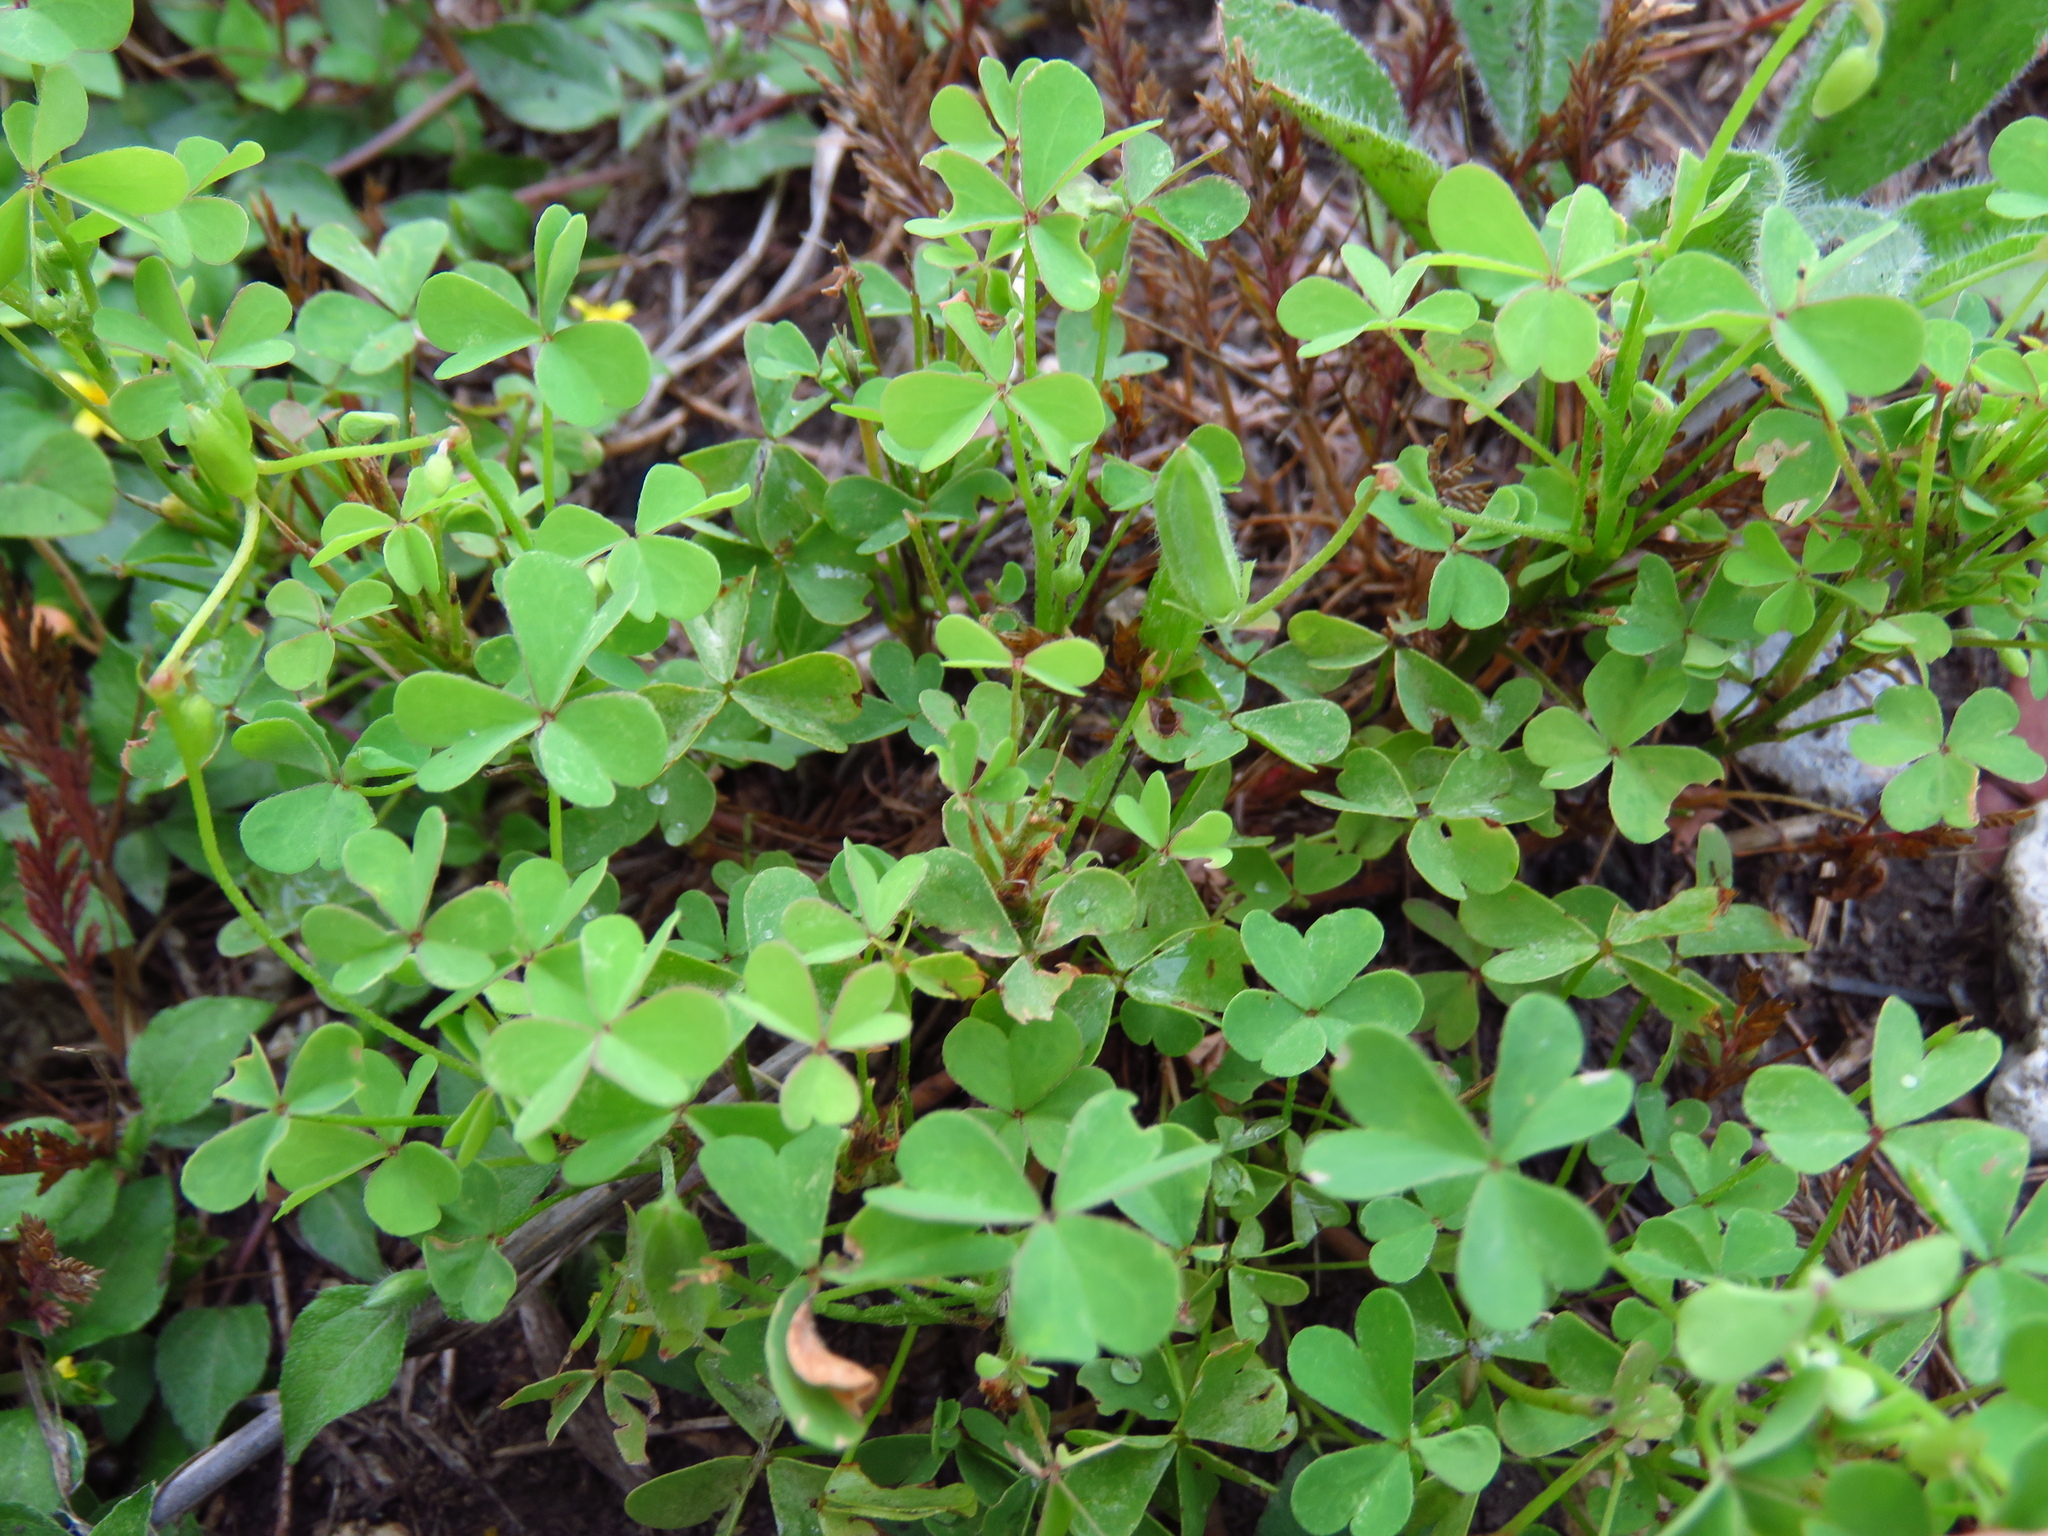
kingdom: Plantae
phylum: Tracheophyta
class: Magnoliopsida
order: Oxalidales
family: Oxalidaceae
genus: Oxalis
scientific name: Oxalis dillenii
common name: Sussex yellow-sorrel
